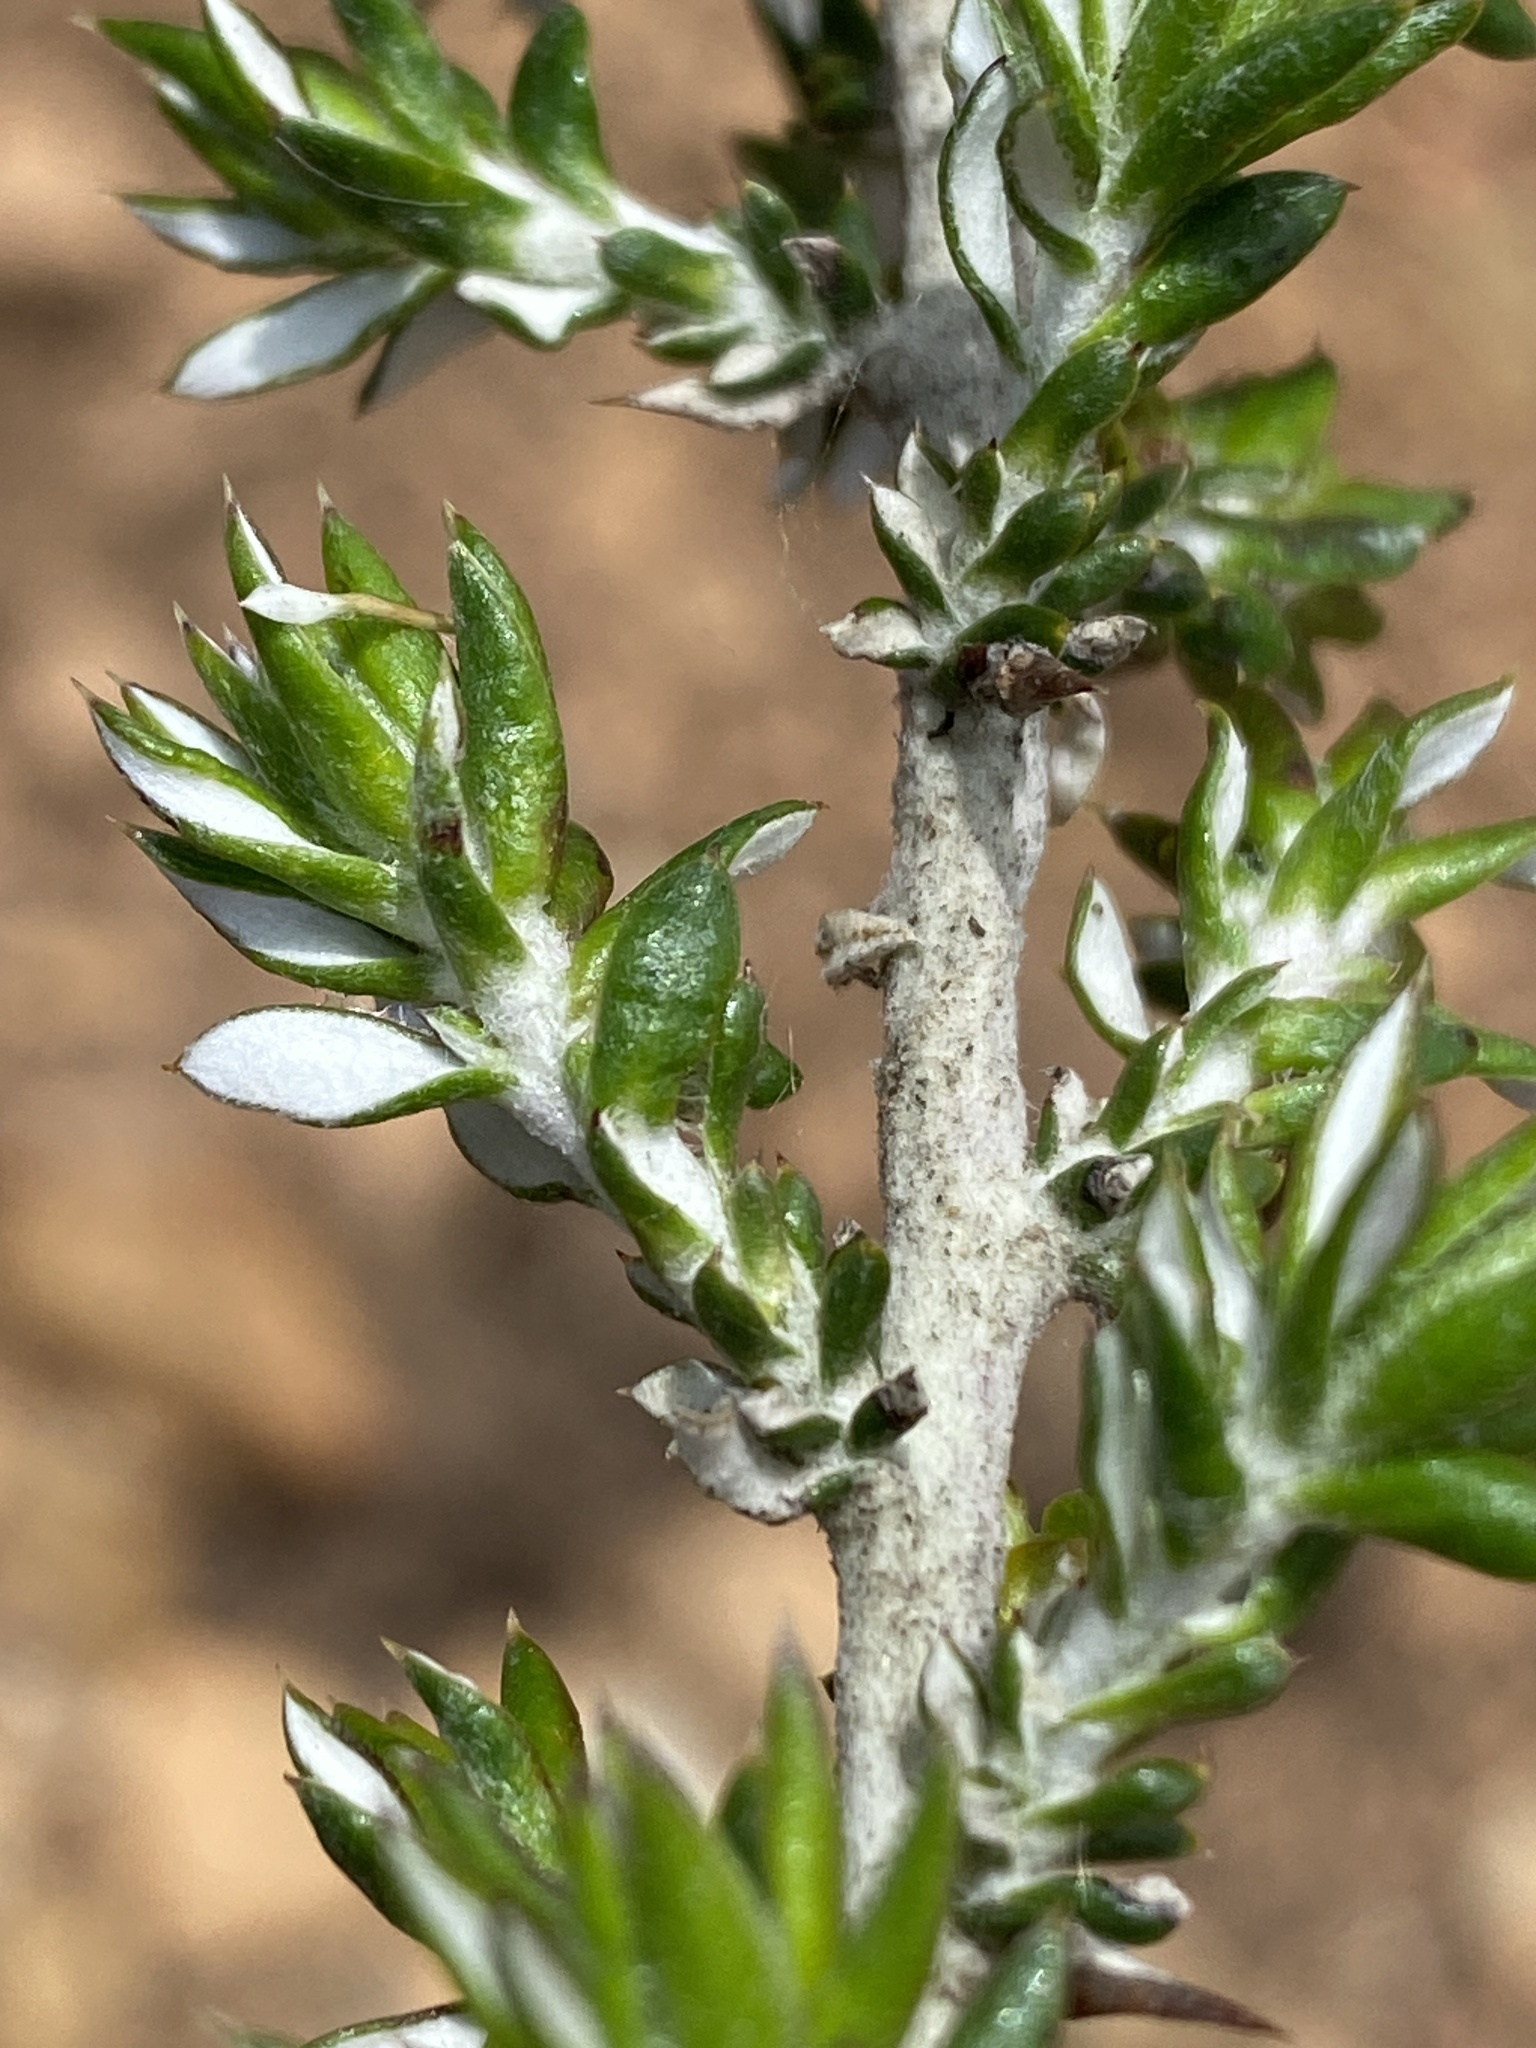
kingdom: Plantae
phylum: Tracheophyta
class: Magnoliopsida
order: Asterales
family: Asteraceae
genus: Metalasia
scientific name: Metalasia densa
